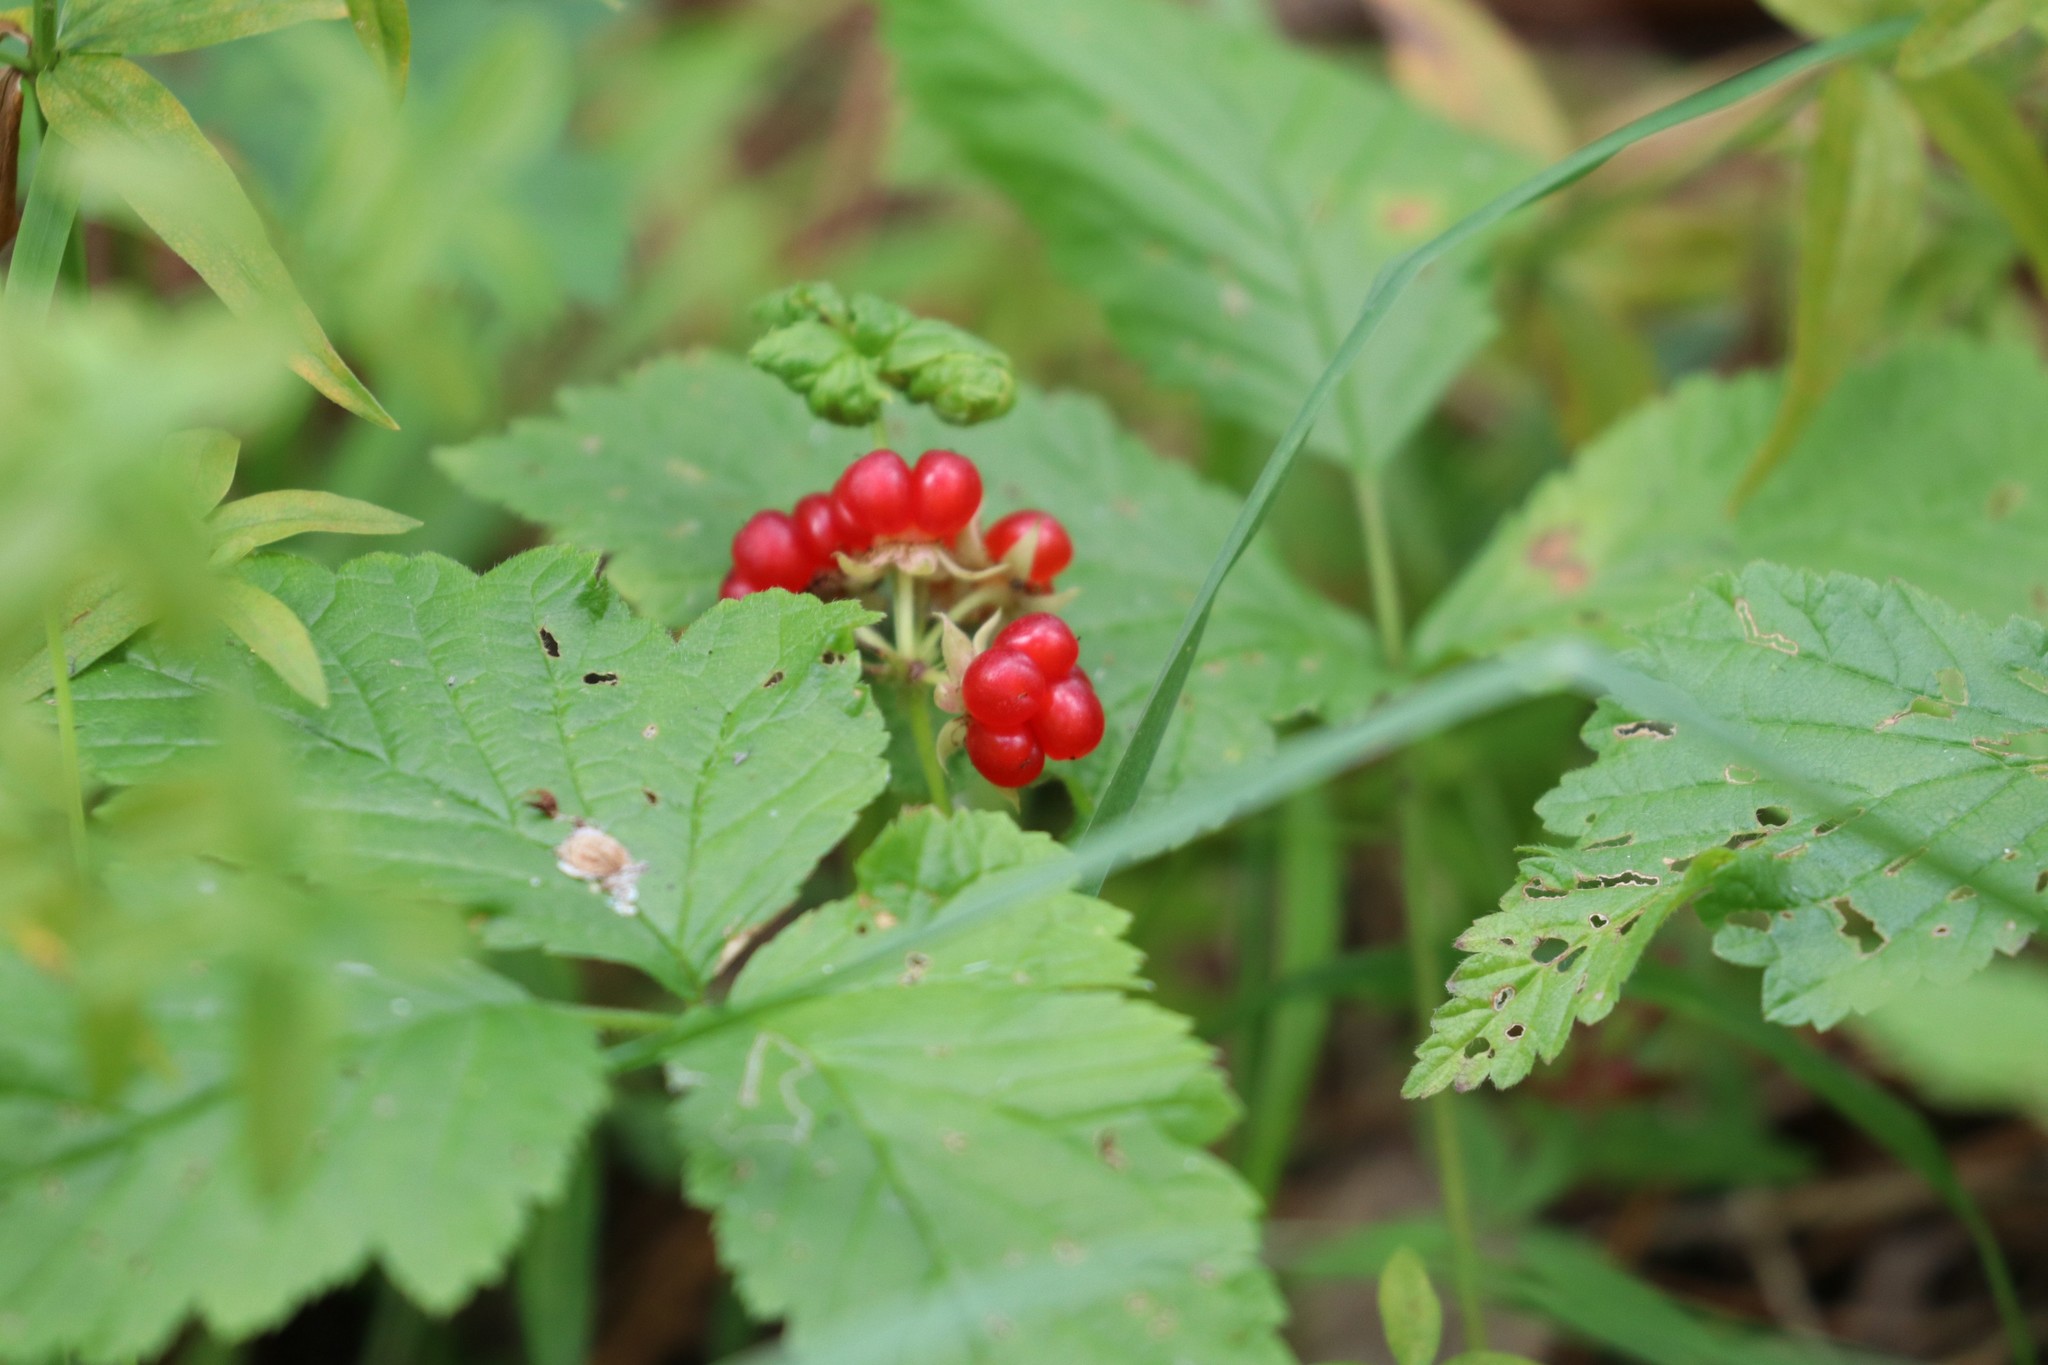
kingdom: Plantae
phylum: Tracheophyta
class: Magnoliopsida
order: Rosales
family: Rosaceae
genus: Rubus
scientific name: Rubus saxatilis
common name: Stone bramble
